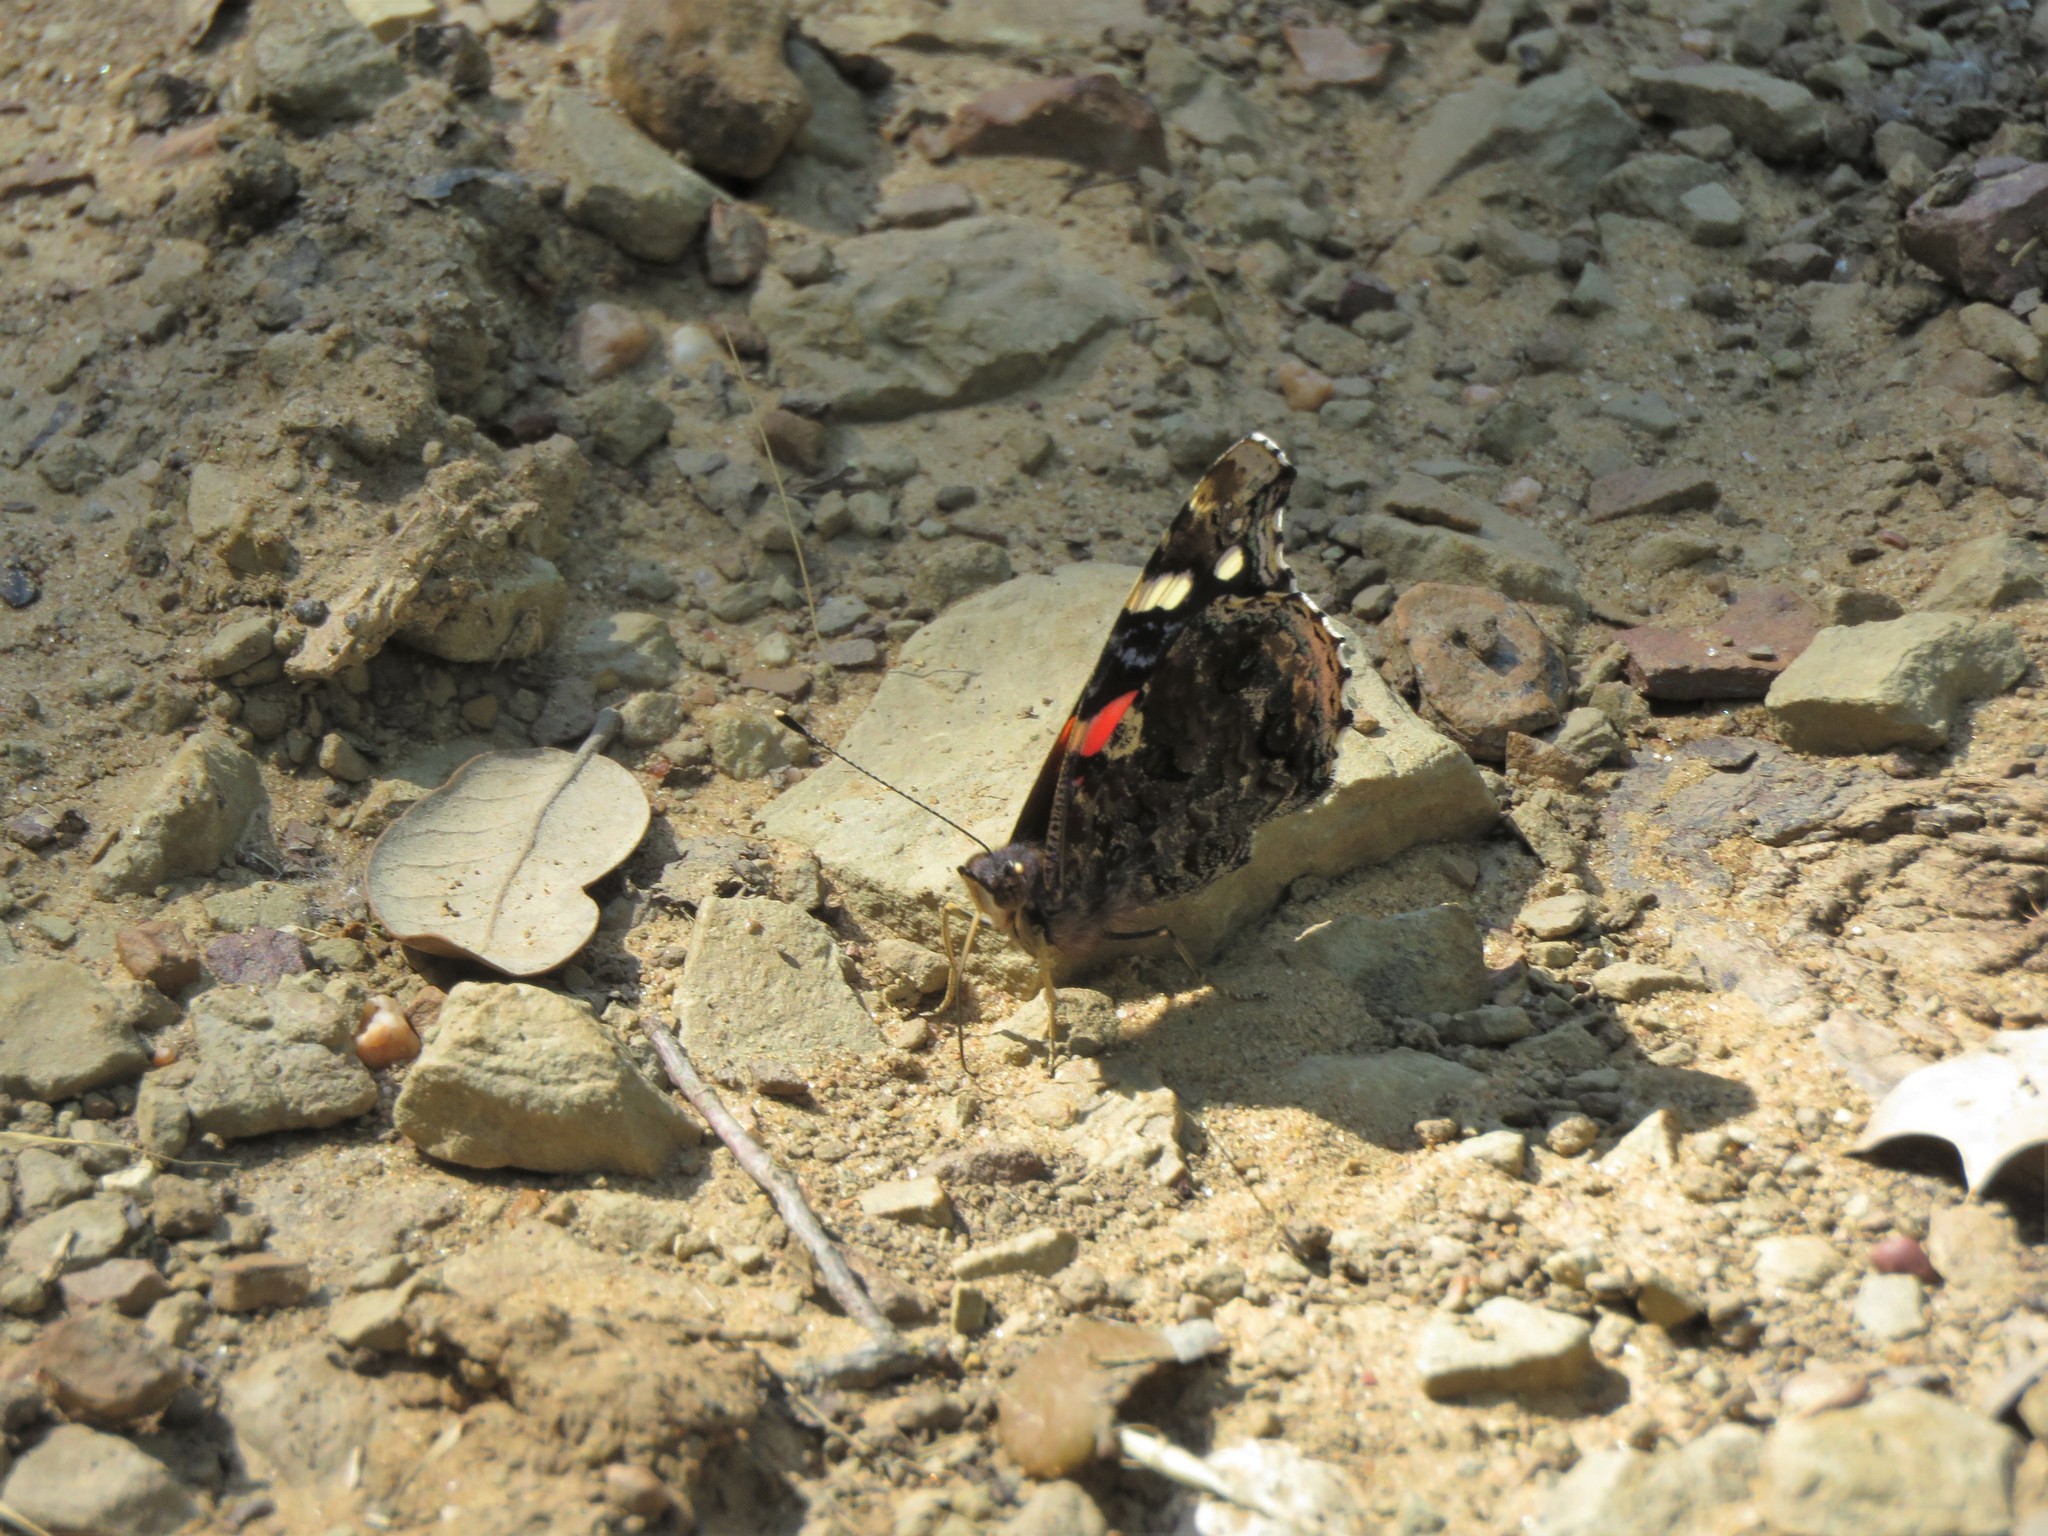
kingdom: Animalia
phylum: Arthropoda
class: Insecta
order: Lepidoptera
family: Nymphalidae
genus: Vanessa
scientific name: Vanessa atalanta
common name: Red admiral
